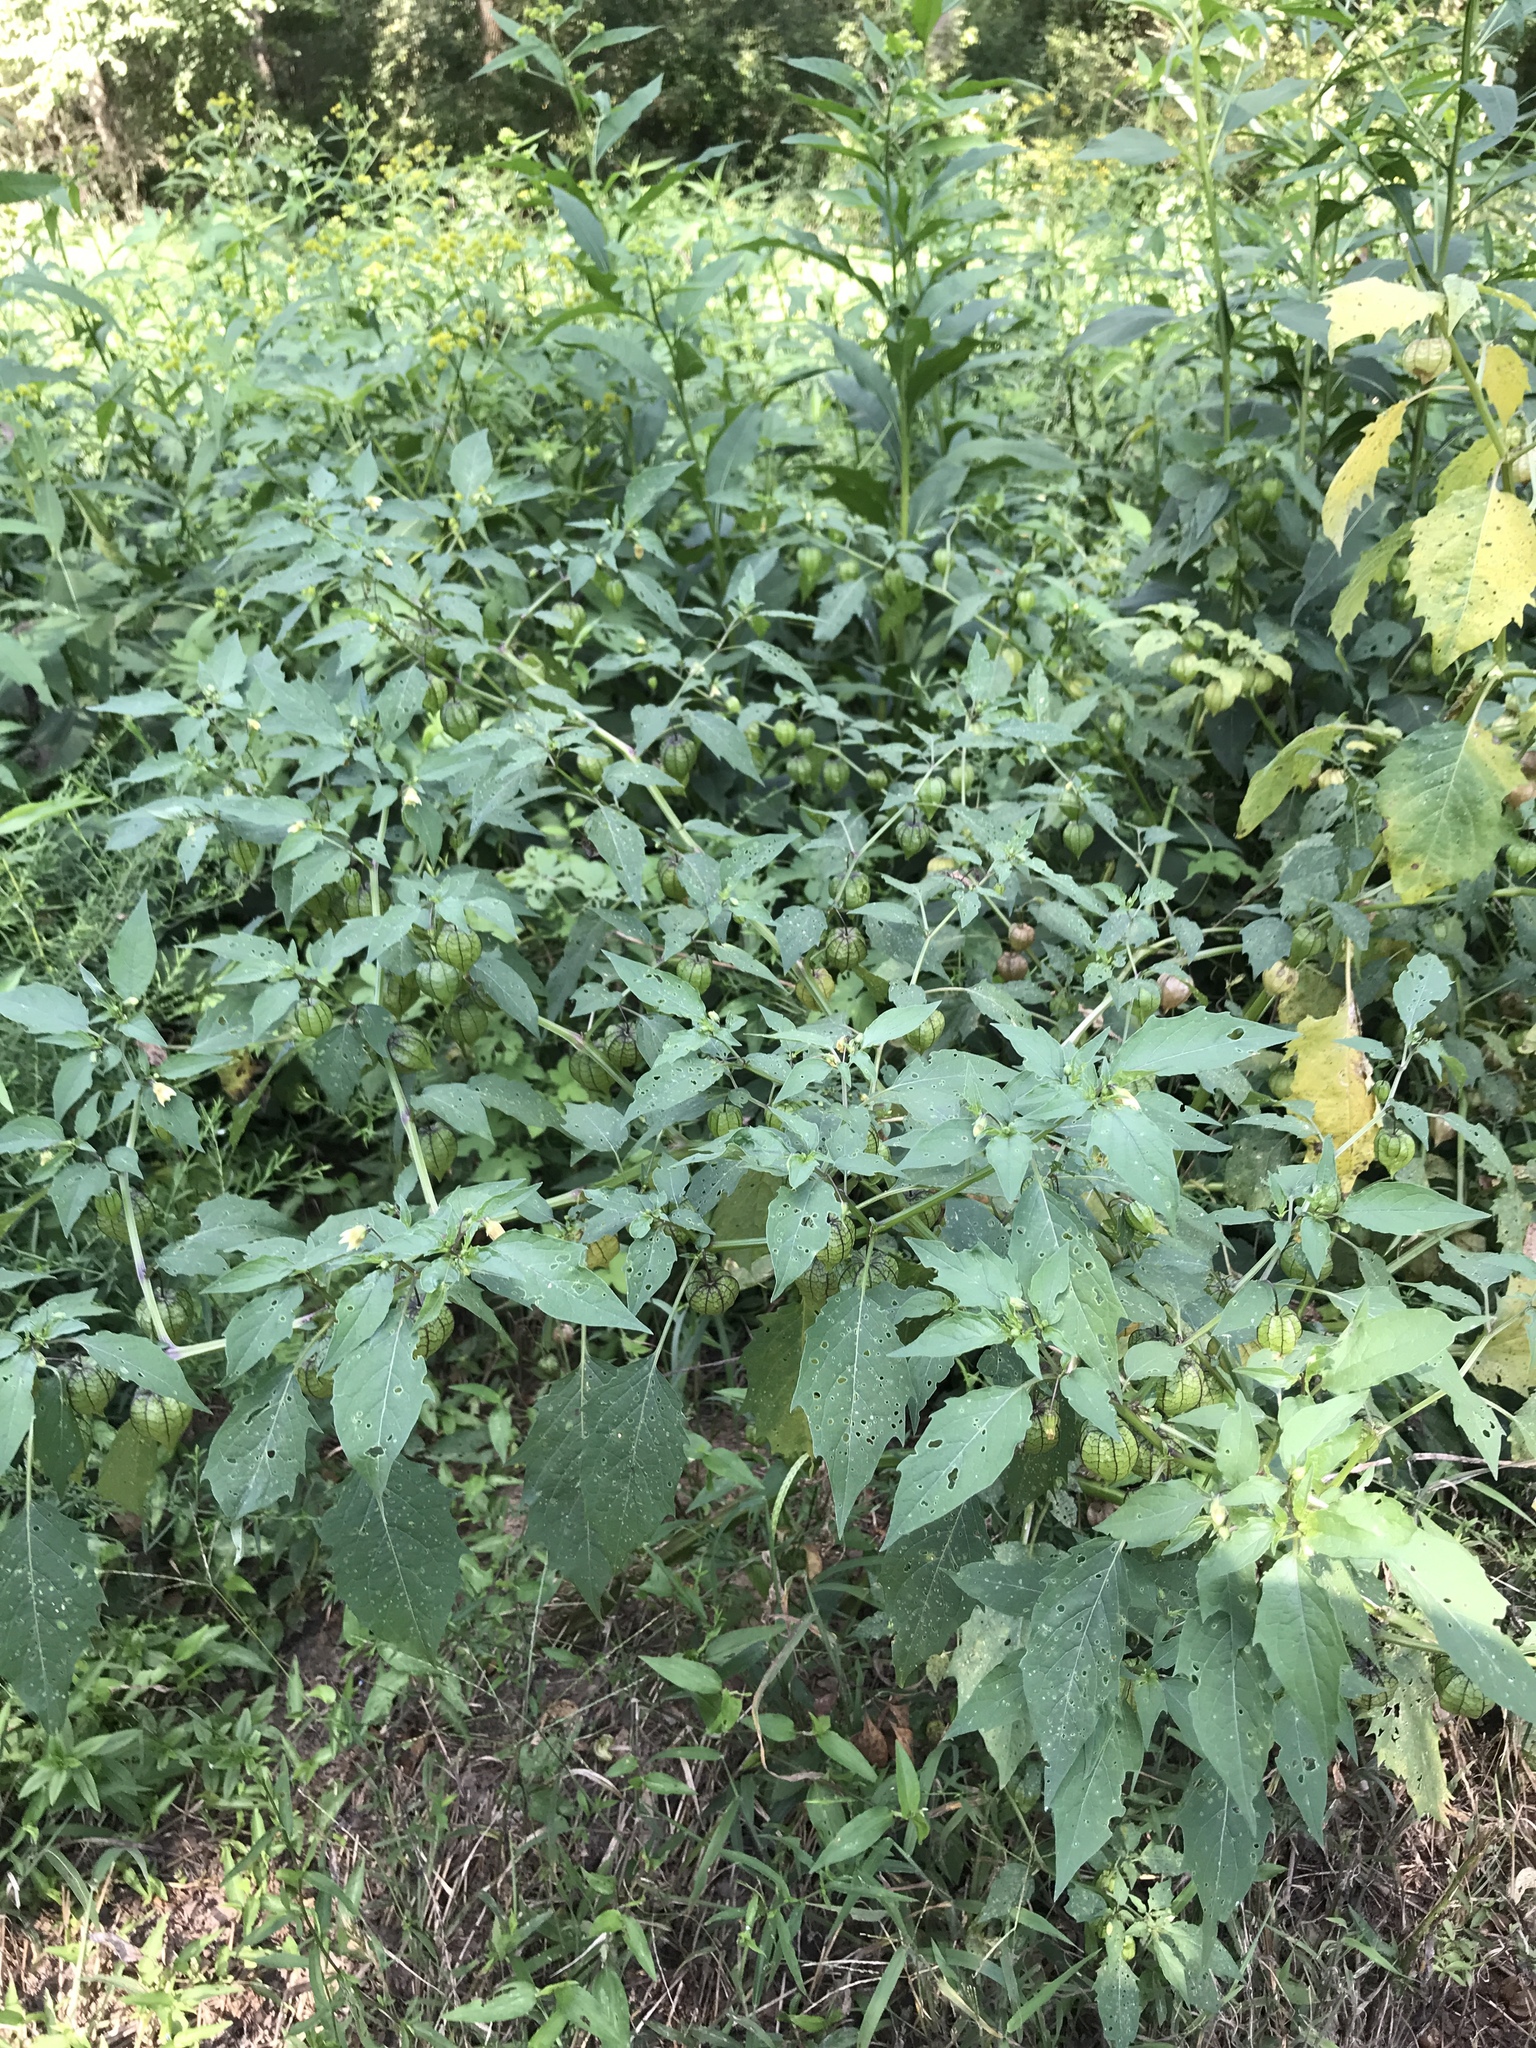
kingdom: Plantae
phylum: Tracheophyta
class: Magnoliopsida
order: Solanales
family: Solanaceae
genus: Physalis
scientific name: Physalis longifolia
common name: Common ground-cherry
